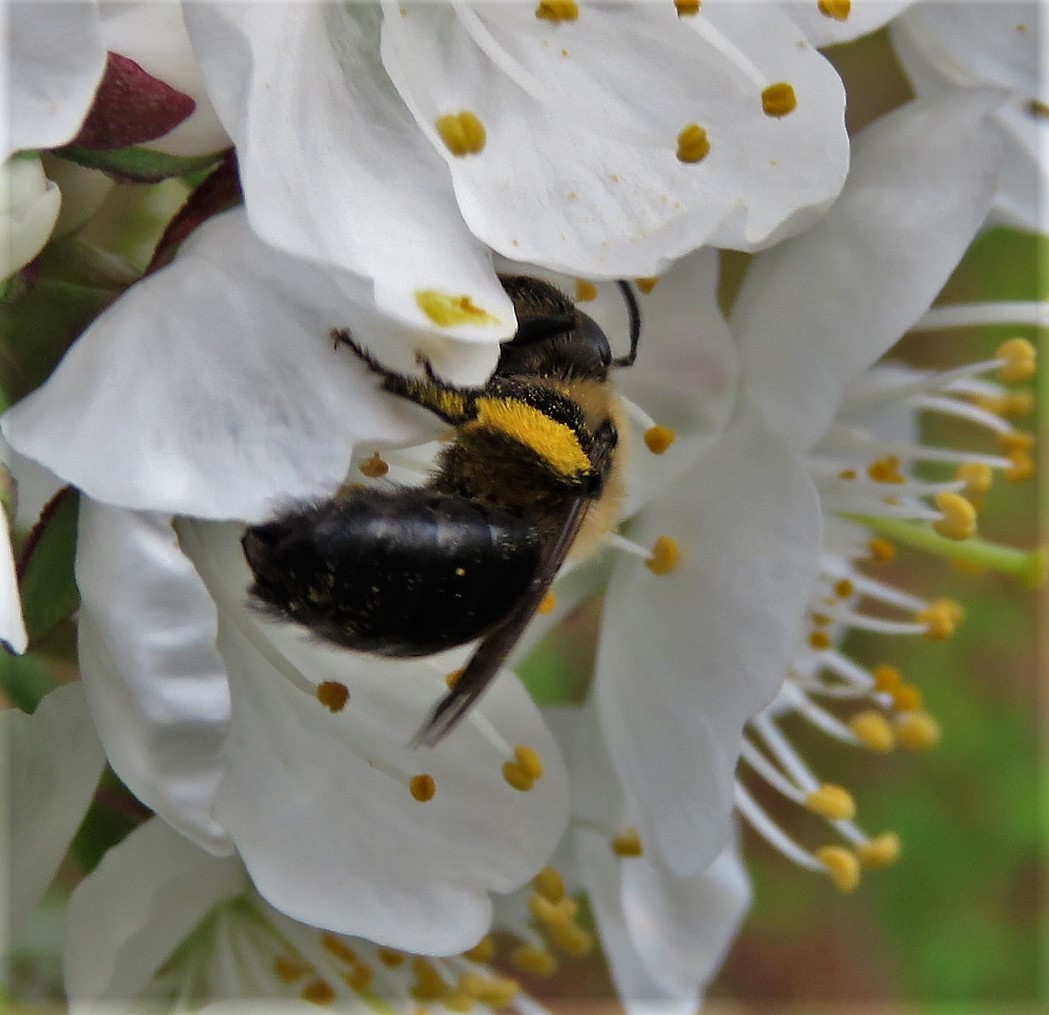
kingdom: Animalia
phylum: Arthropoda
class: Insecta
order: Hymenoptera
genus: Melandrena
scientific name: Melandrena
